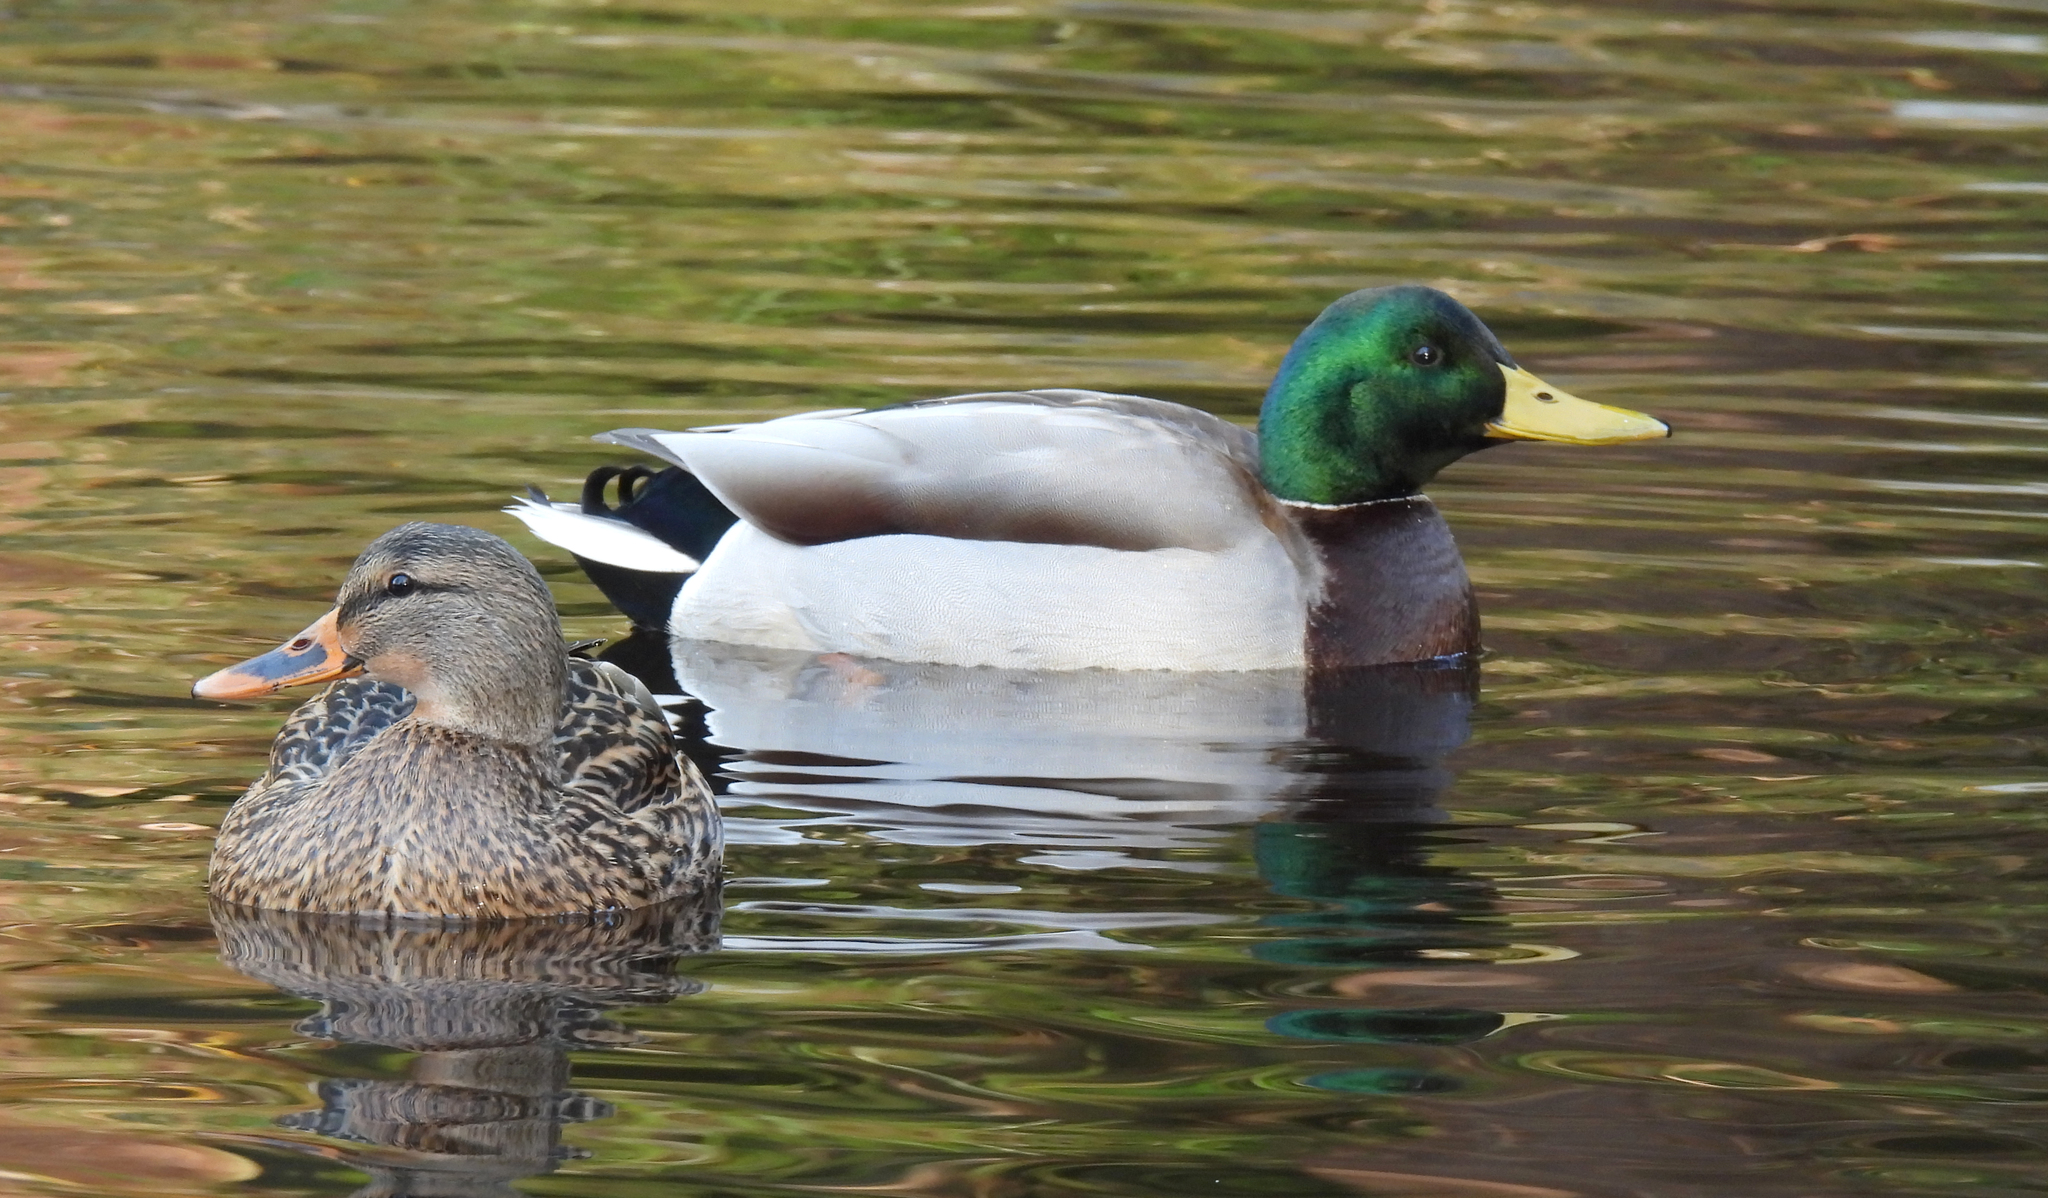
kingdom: Animalia
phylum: Chordata
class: Aves
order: Anseriformes
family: Anatidae
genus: Anas
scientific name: Anas platyrhynchos
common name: Mallard
